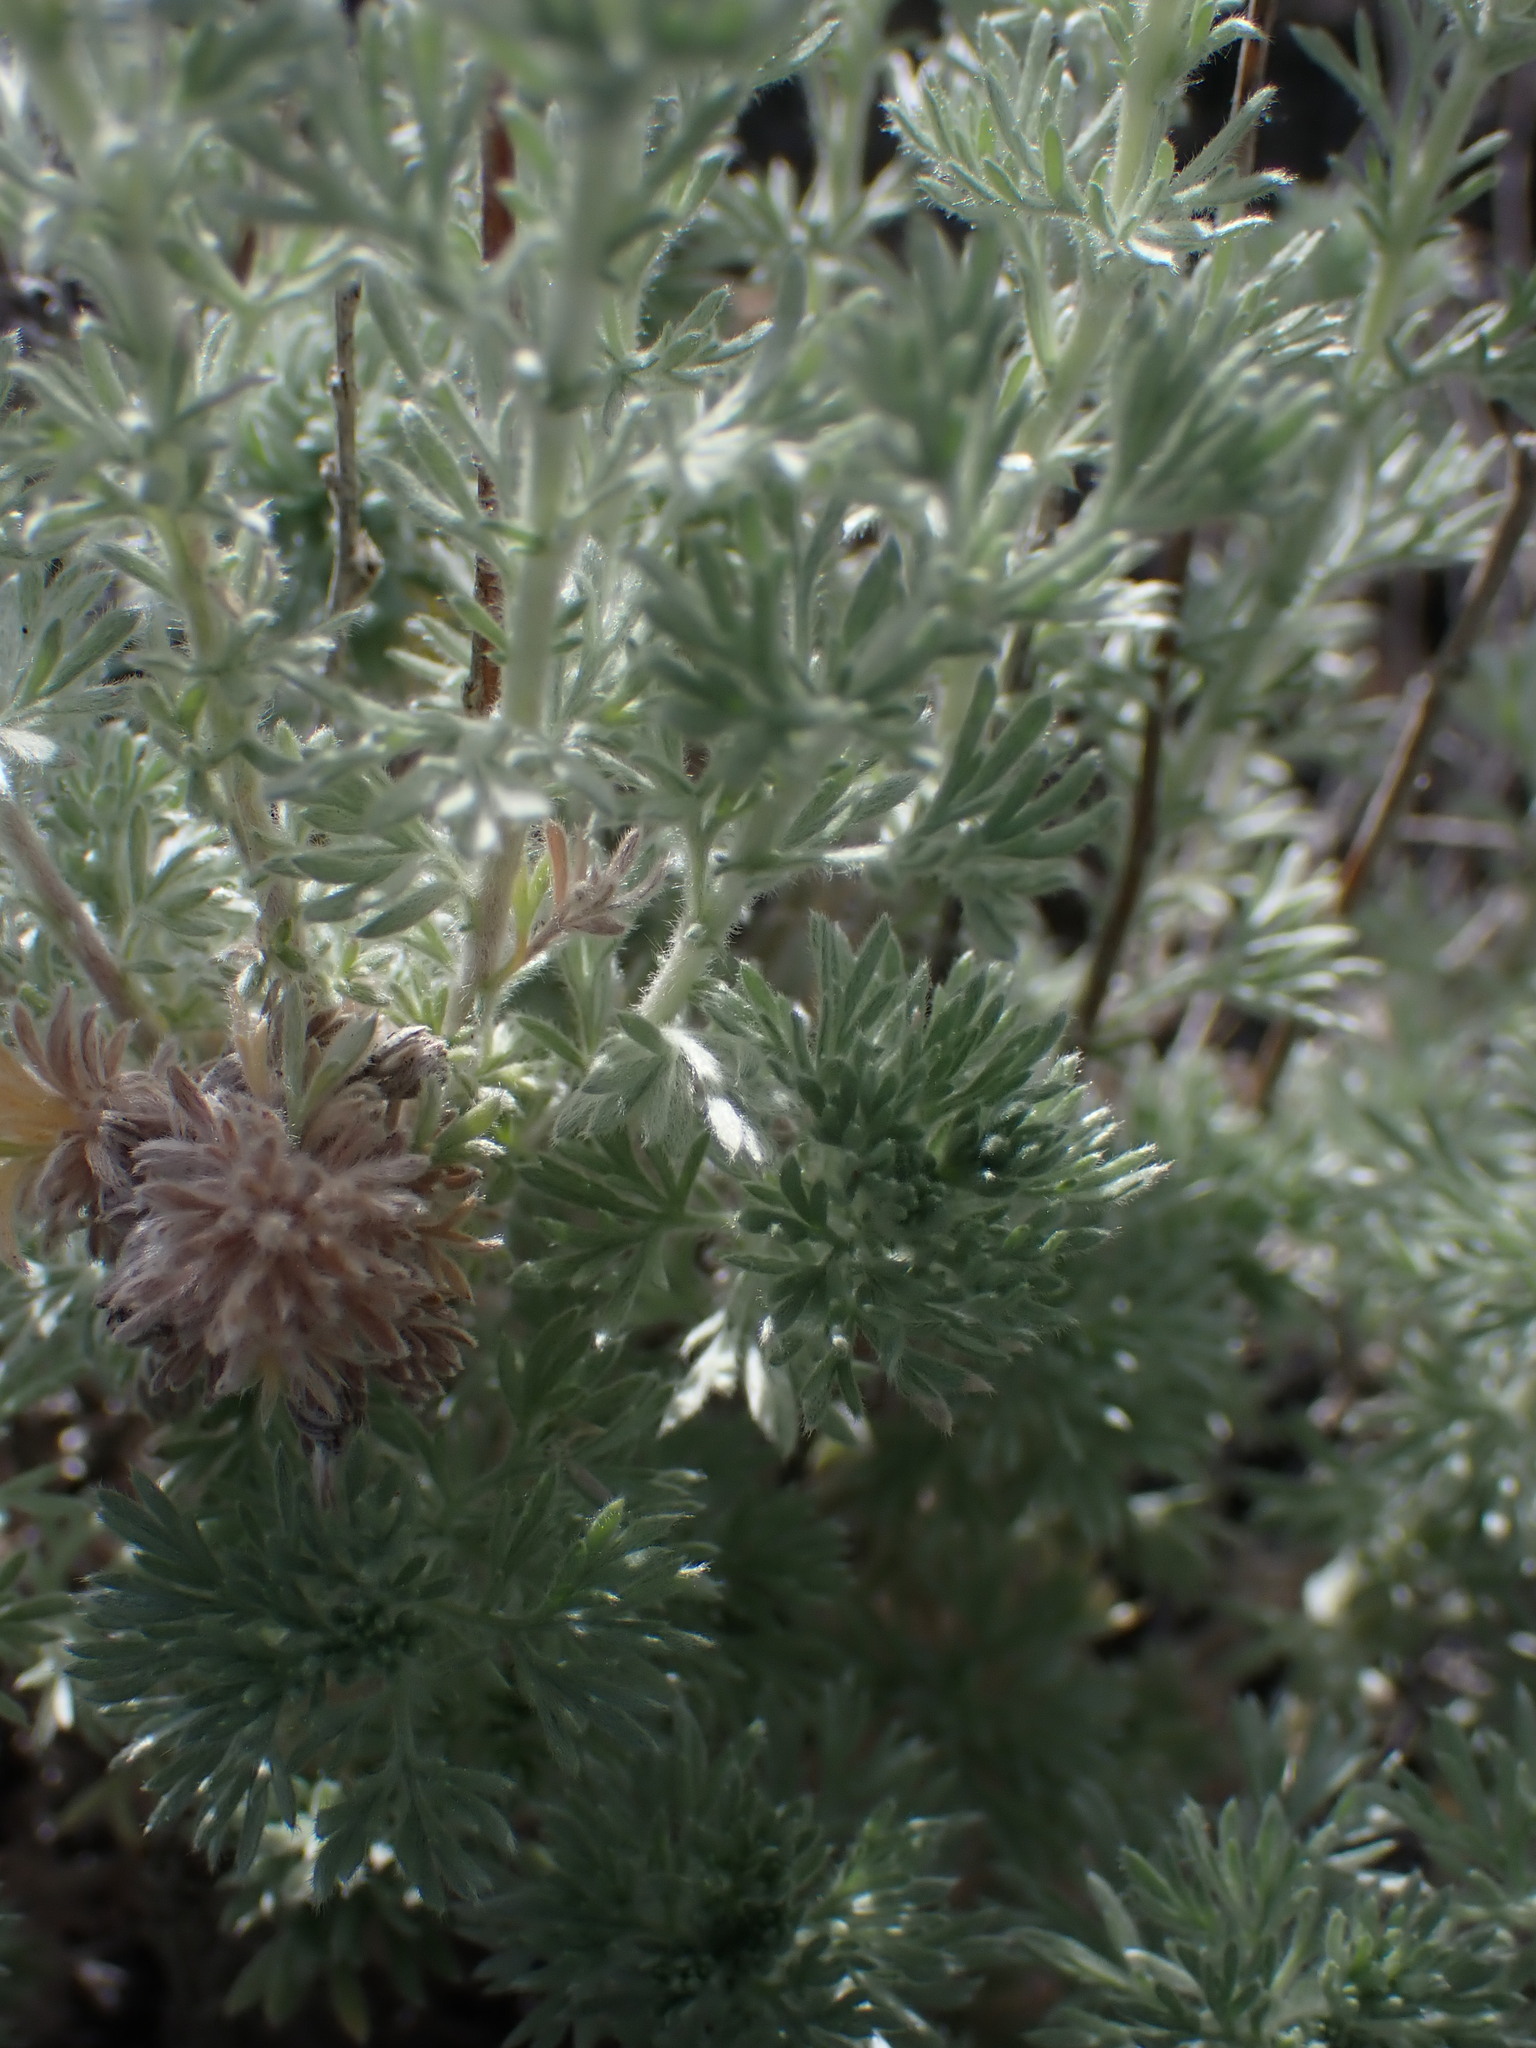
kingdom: Plantae
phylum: Tracheophyta
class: Magnoliopsida
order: Asterales
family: Asteraceae
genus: Artemisia
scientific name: Artemisia frigida
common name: Prairie sagewort
